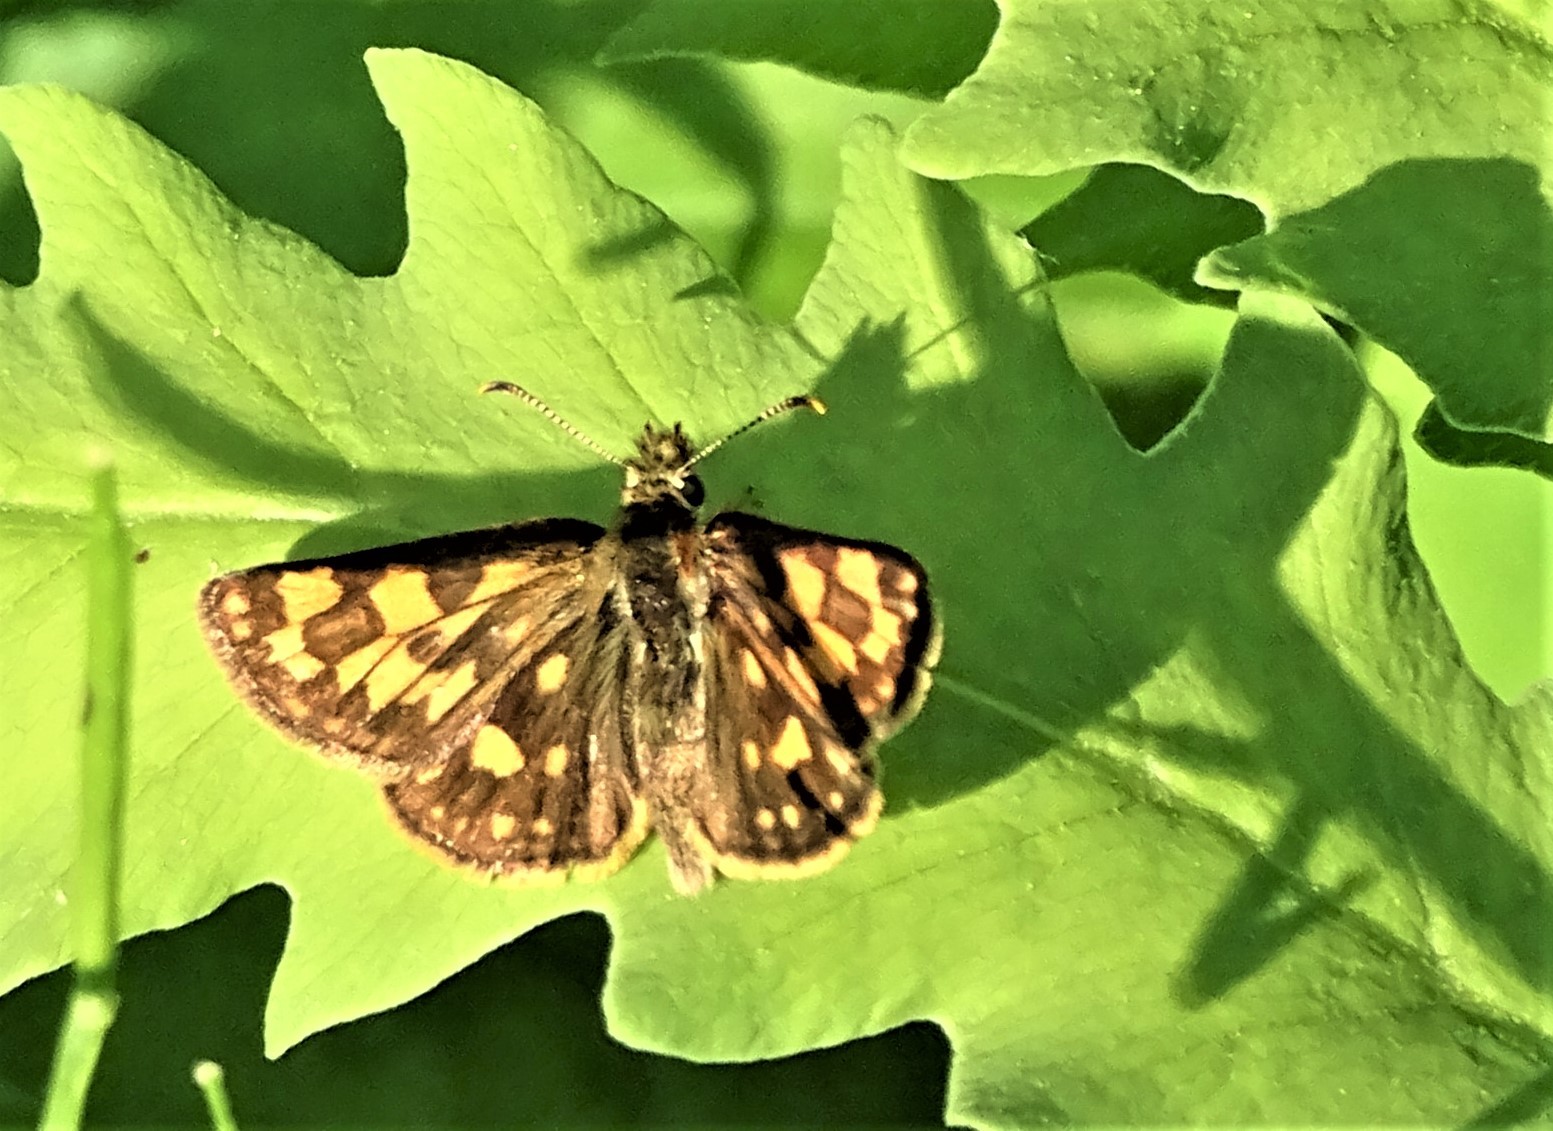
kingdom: Animalia
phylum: Arthropoda
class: Insecta
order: Lepidoptera
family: Hesperiidae
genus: Carterocephalus
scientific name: Carterocephalus mandan
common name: Arctic skipperling
